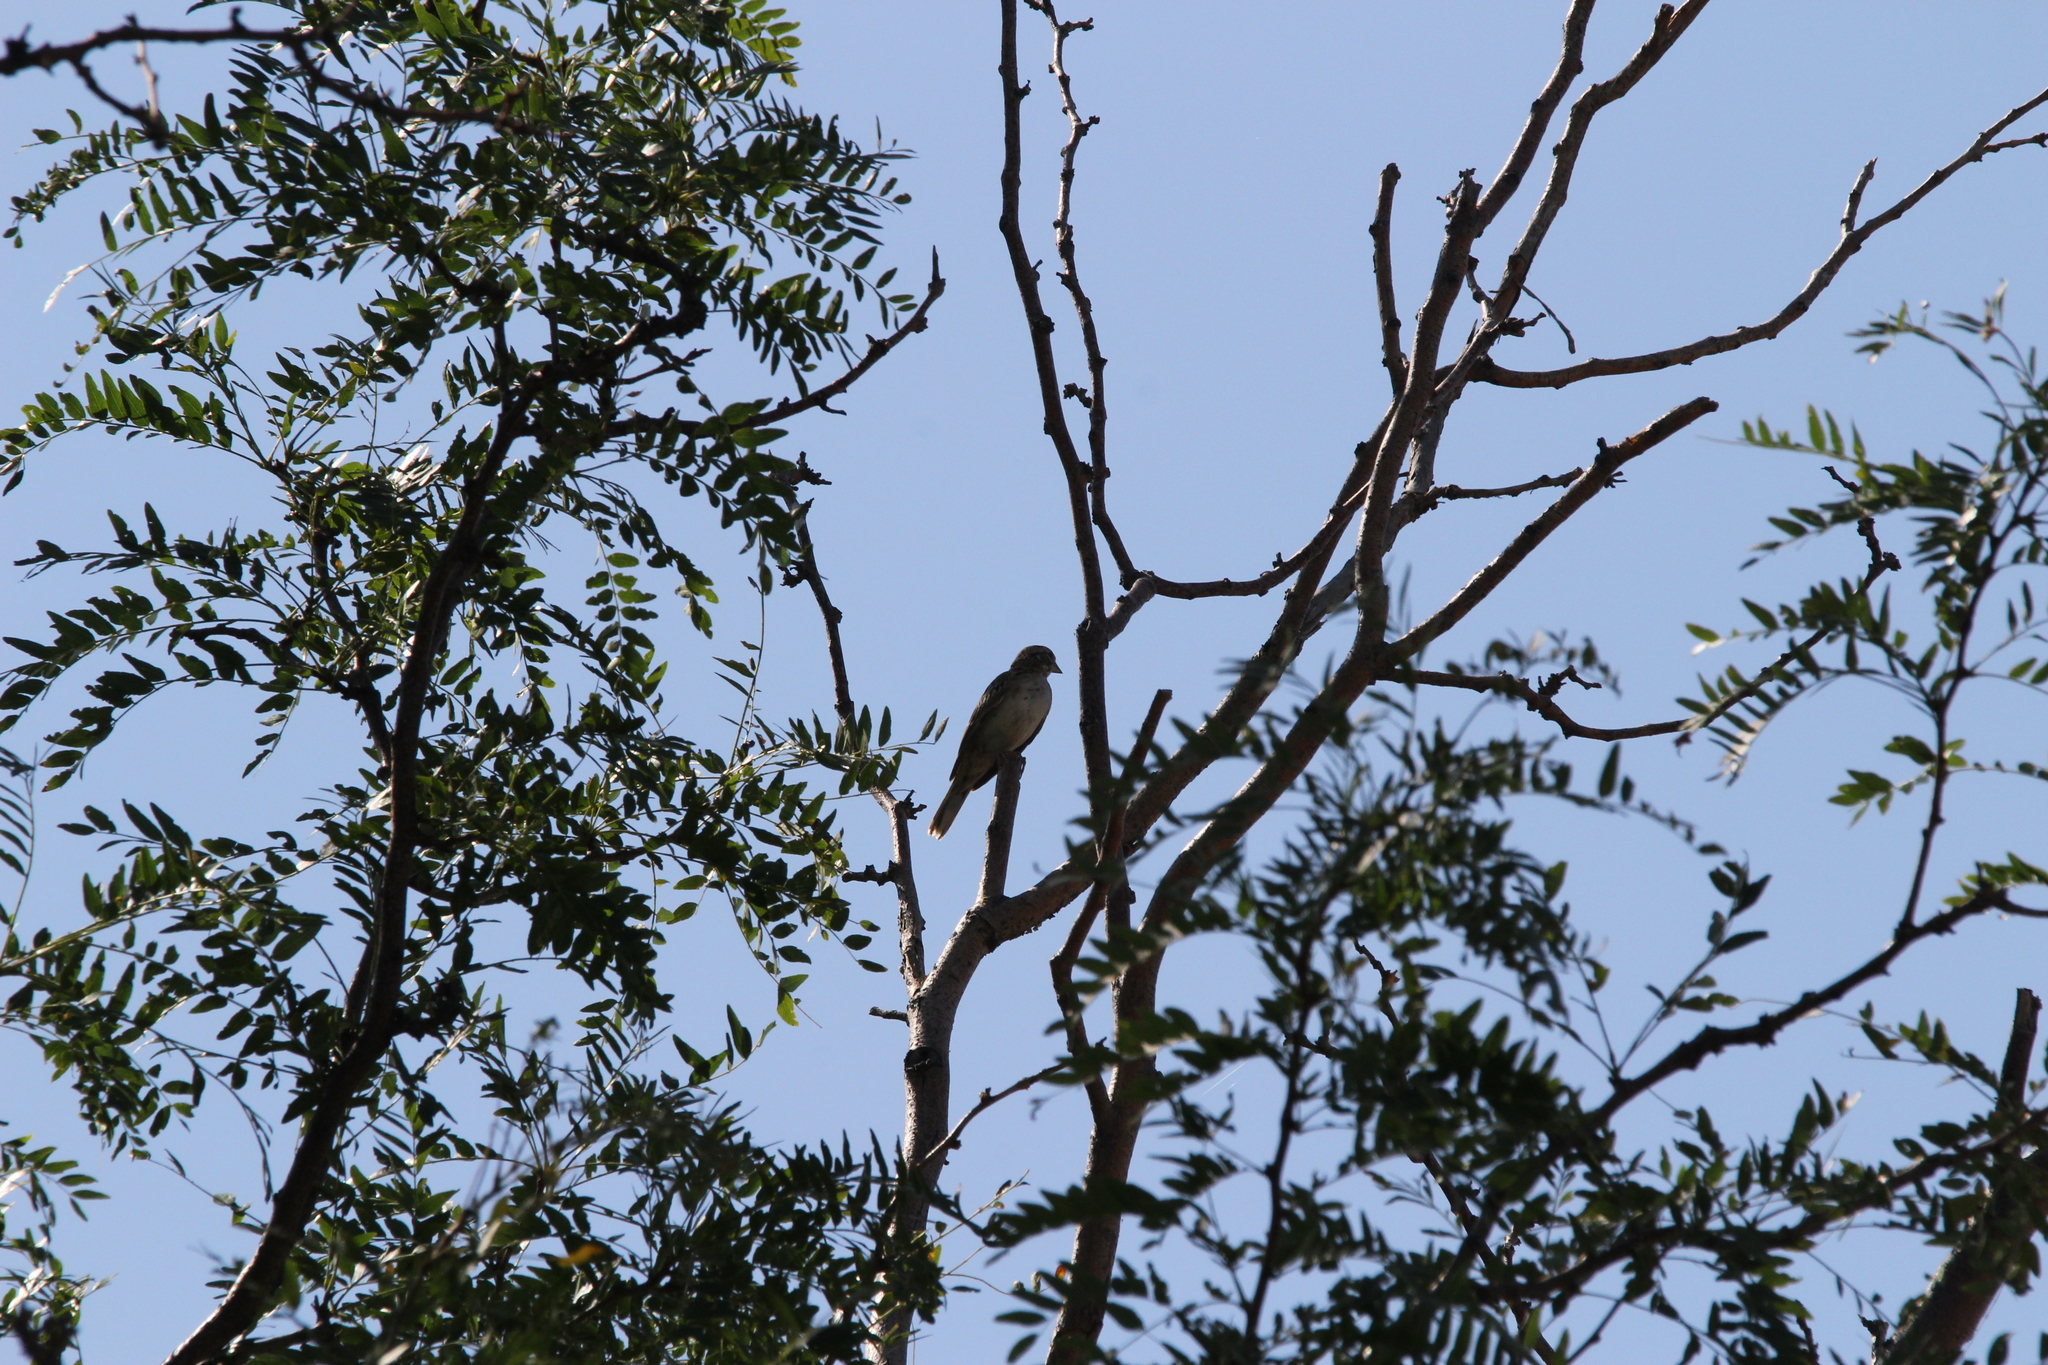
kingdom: Animalia
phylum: Chordata
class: Aves
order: Passeriformes
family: Passerellidae
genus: Chondestes
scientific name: Chondestes grammacus
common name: Lark sparrow
